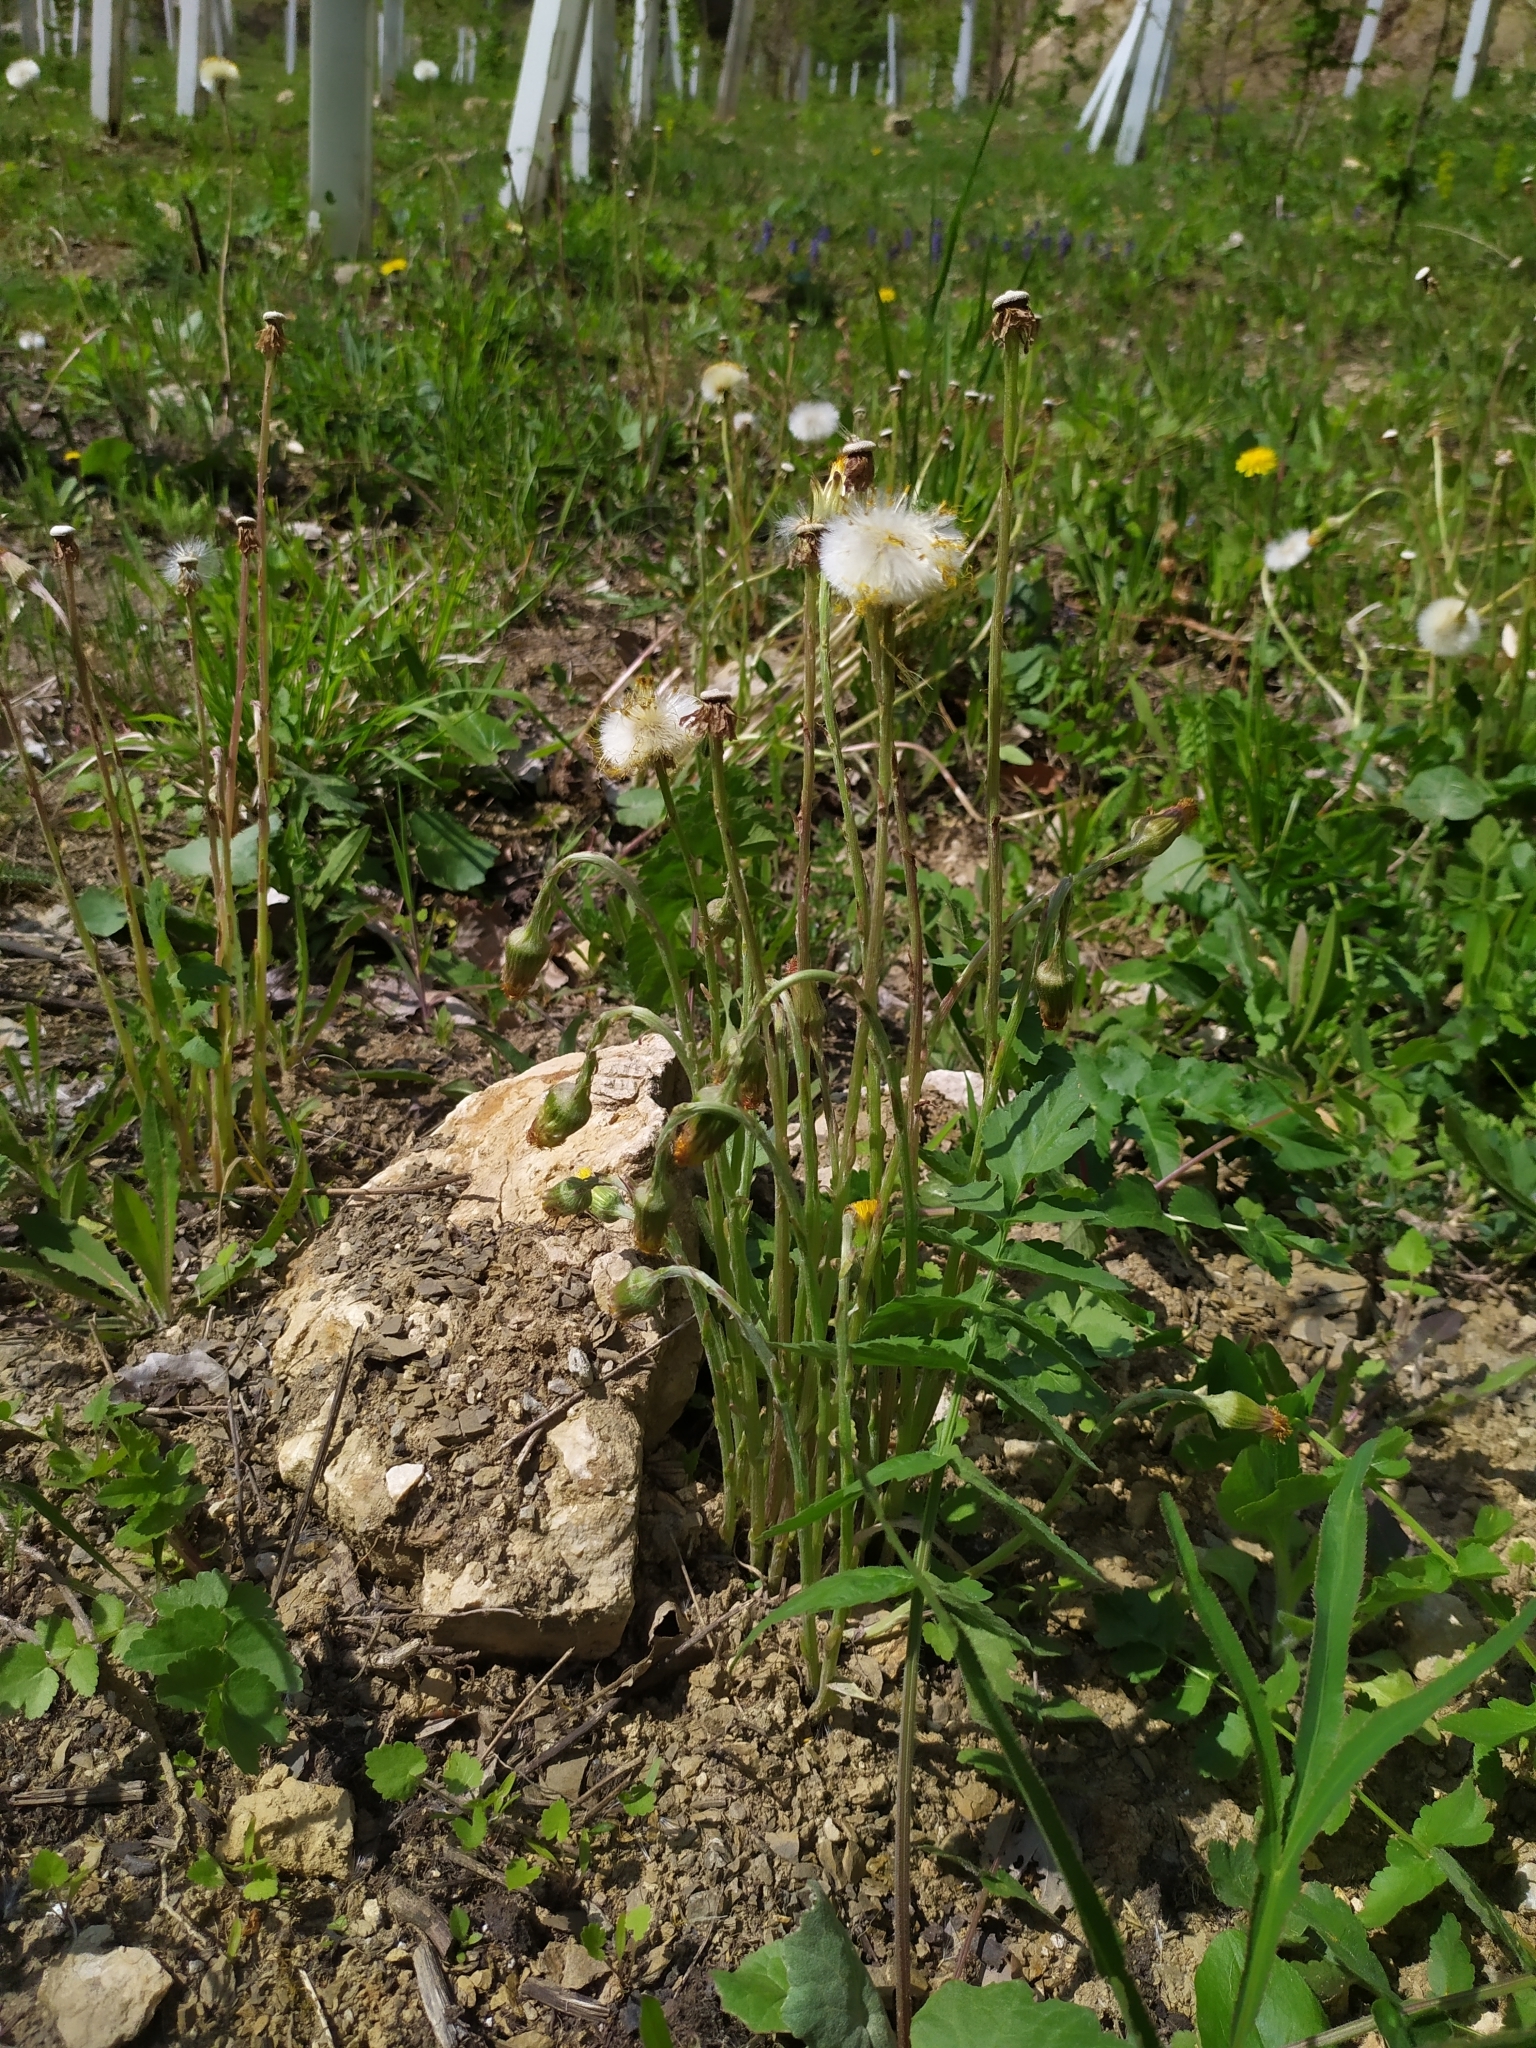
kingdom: Plantae
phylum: Tracheophyta
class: Magnoliopsida
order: Asterales
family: Asteraceae
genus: Tussilago
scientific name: Tussilago farfara
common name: Coltsfoot
